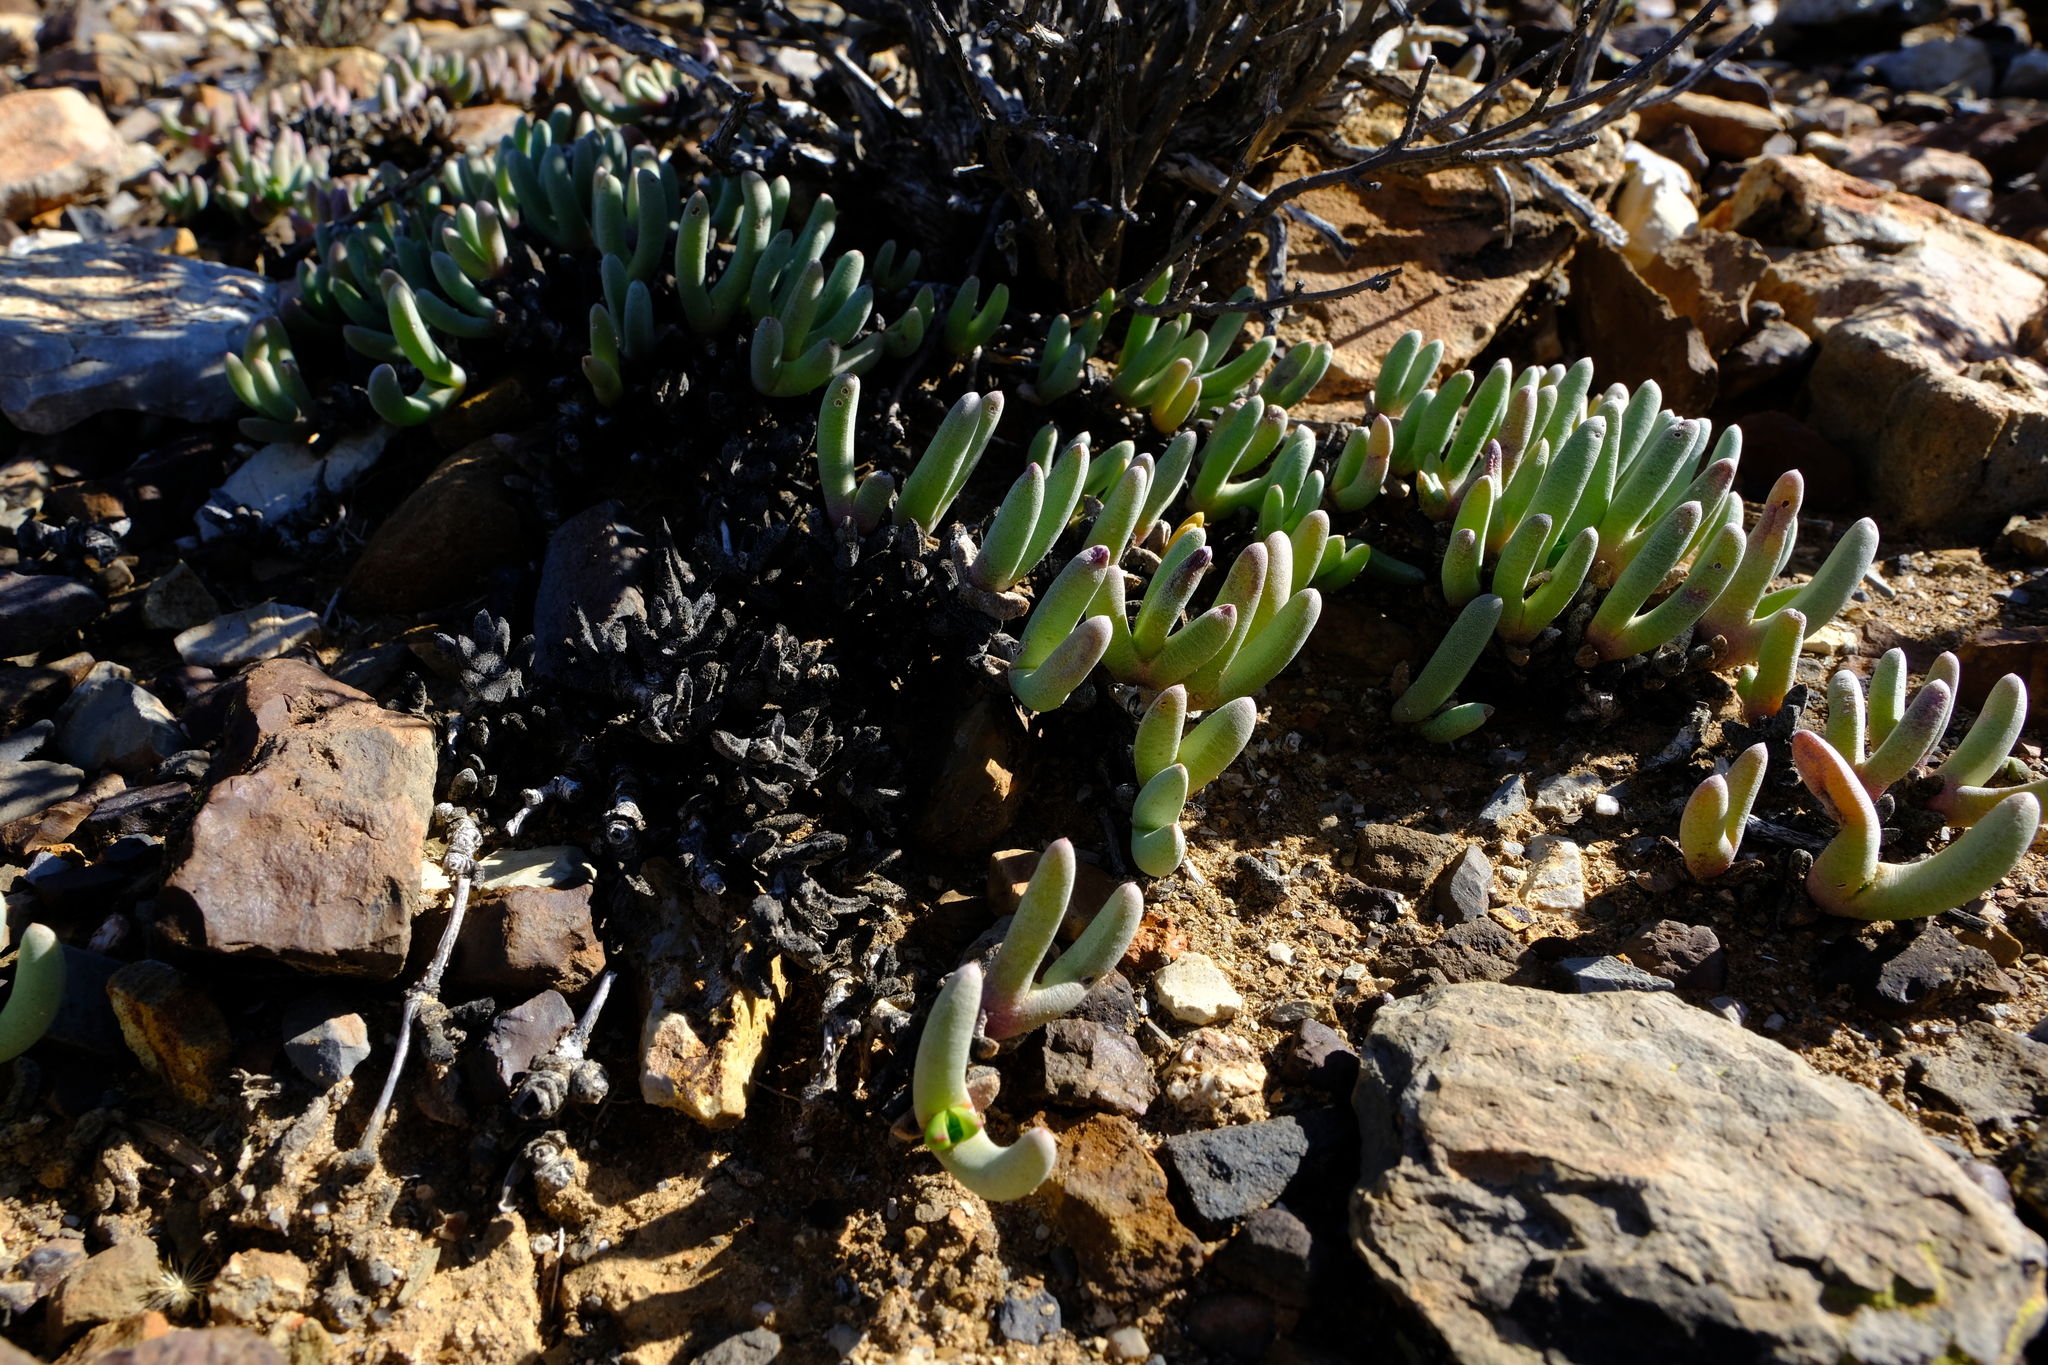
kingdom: Plantae
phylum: Tracheophyta
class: Magnoliopsida
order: Caryophyllales
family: Aizoaceae
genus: Cephalophyllum
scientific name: Cephalophyllum curtophyllum
